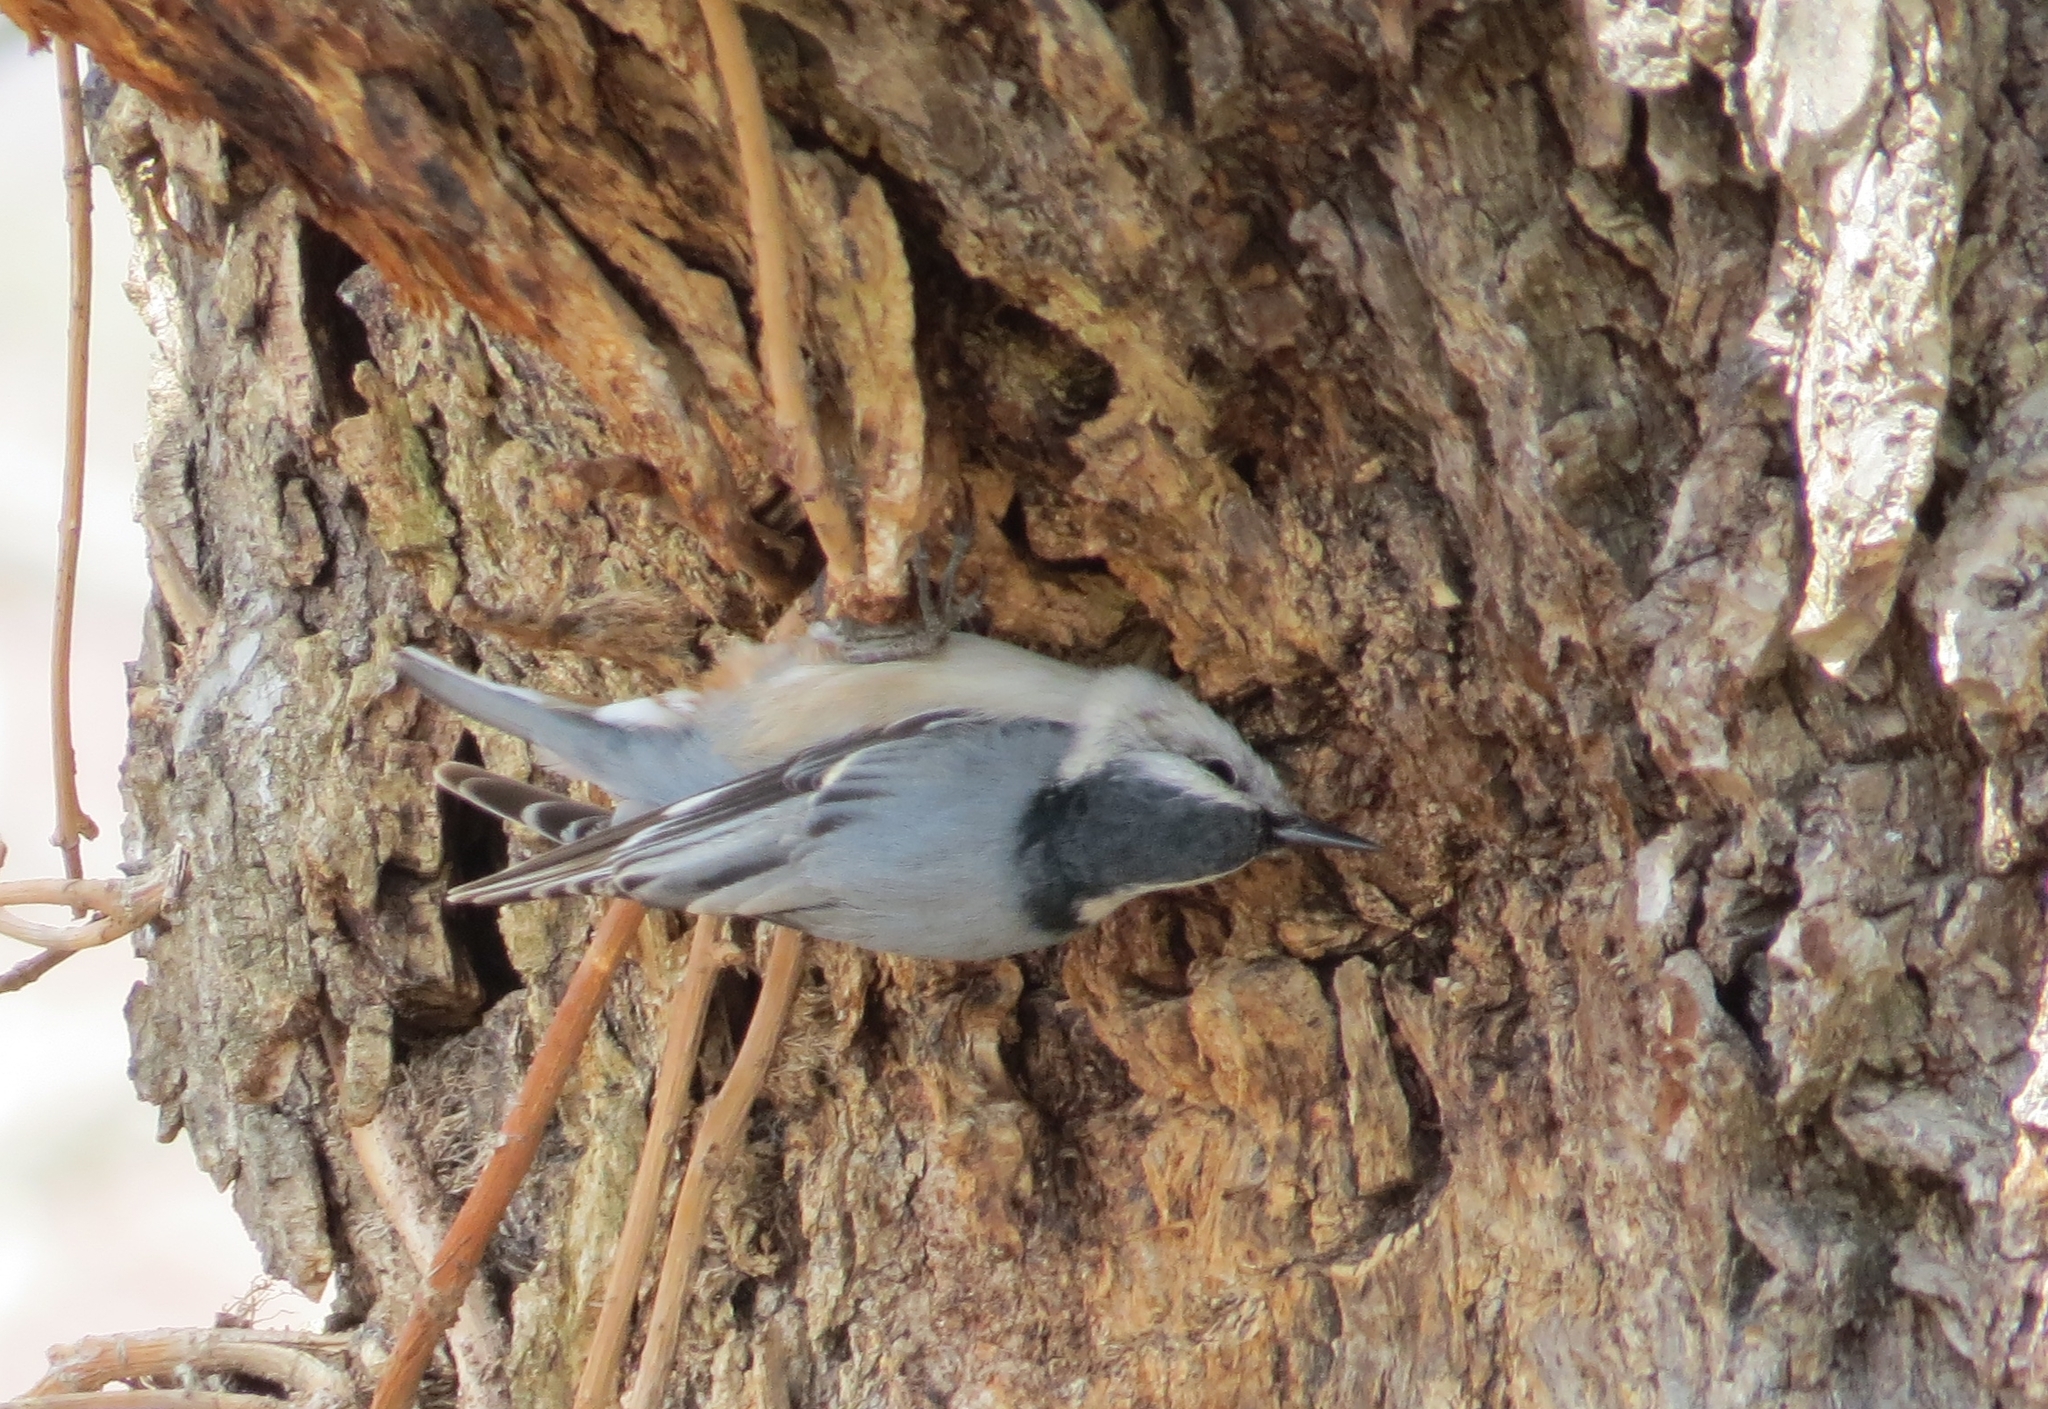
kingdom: Animalia
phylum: Chordata
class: Aves
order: Passeriformes
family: Sittidae
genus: Sitta
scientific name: Sitta carolinensis
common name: White-breasted nuthatch
